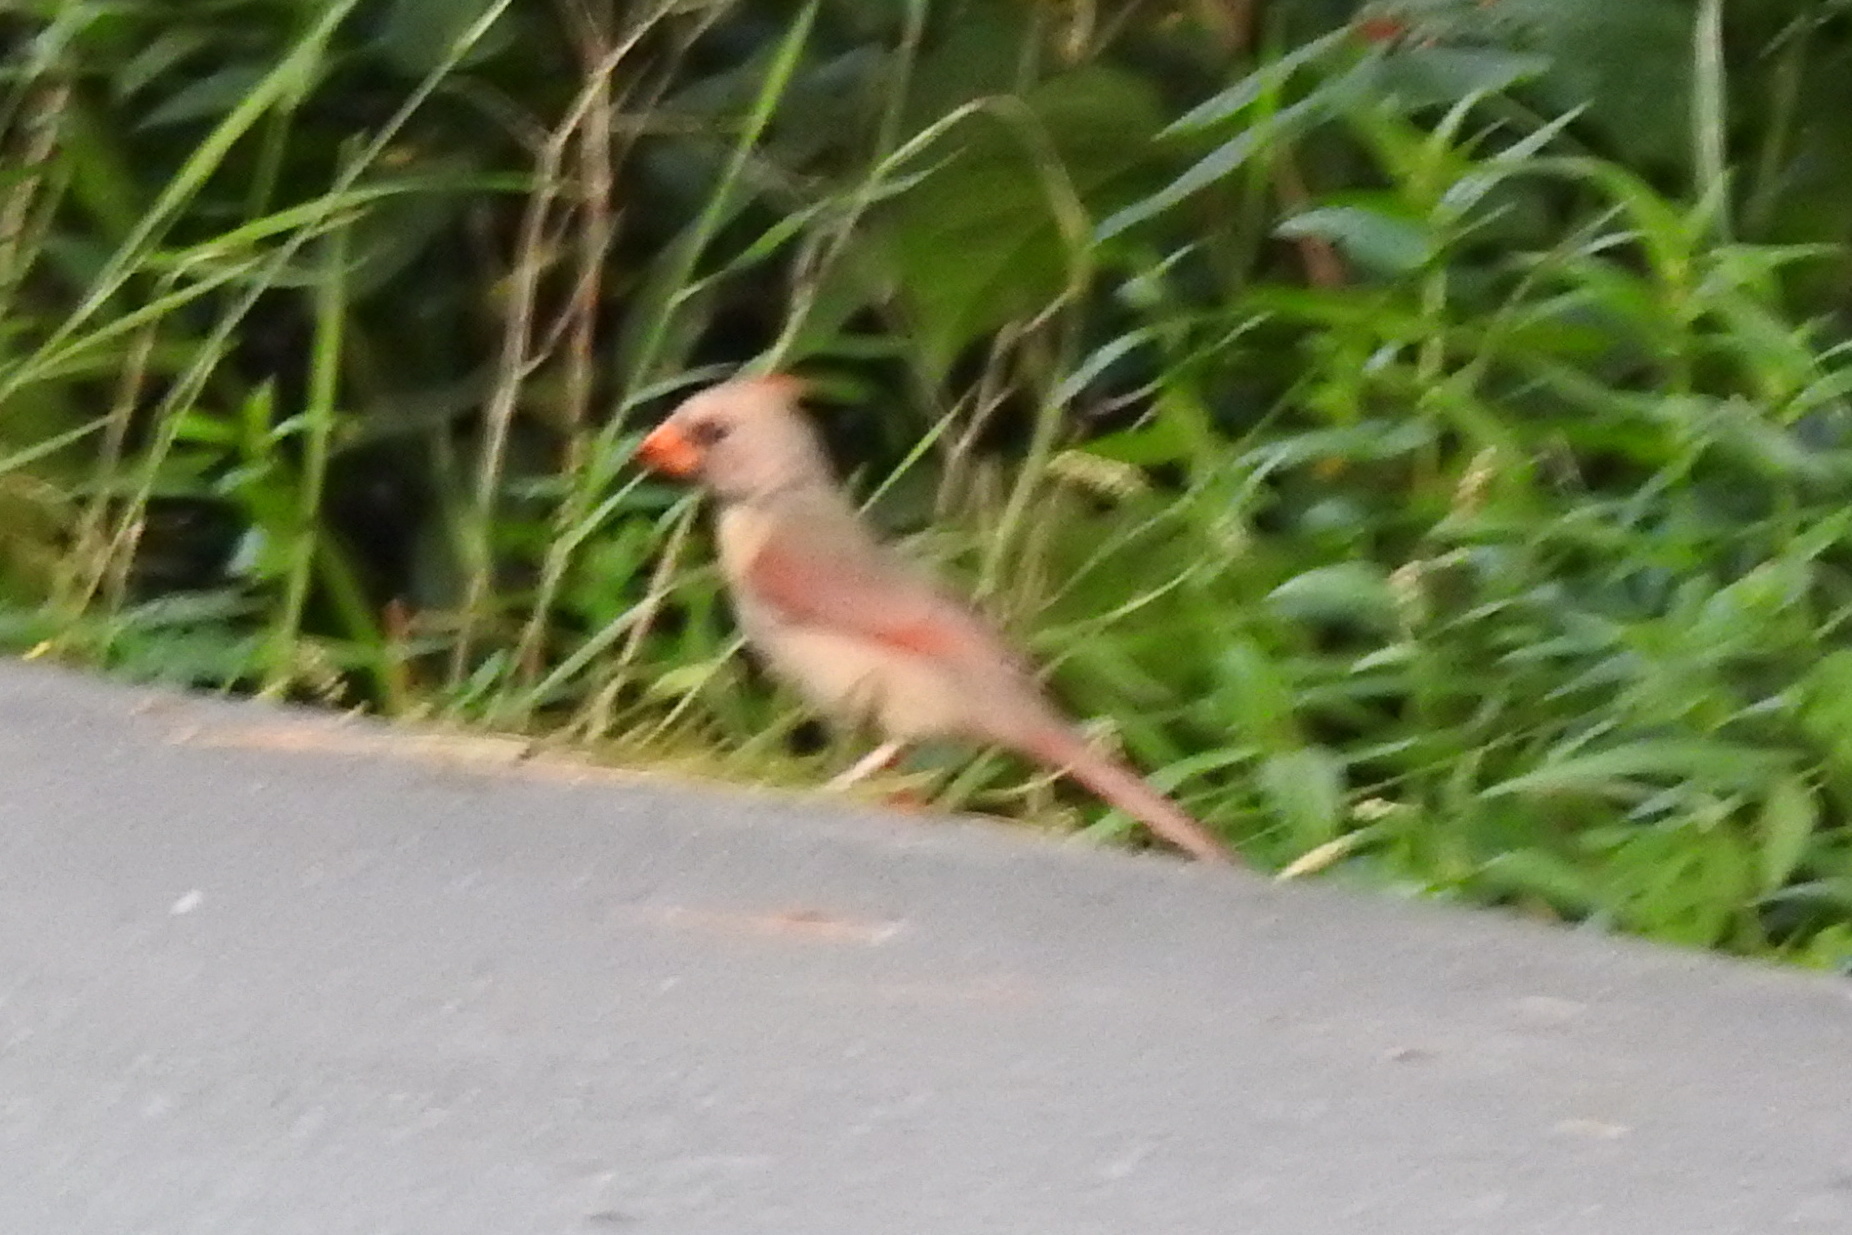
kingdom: Animalia
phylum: Chordata
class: Aves
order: Passeriformes
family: Cardinalidae
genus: Cardinalis
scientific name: Cardinalis cardinalis
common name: Northern cardinal
